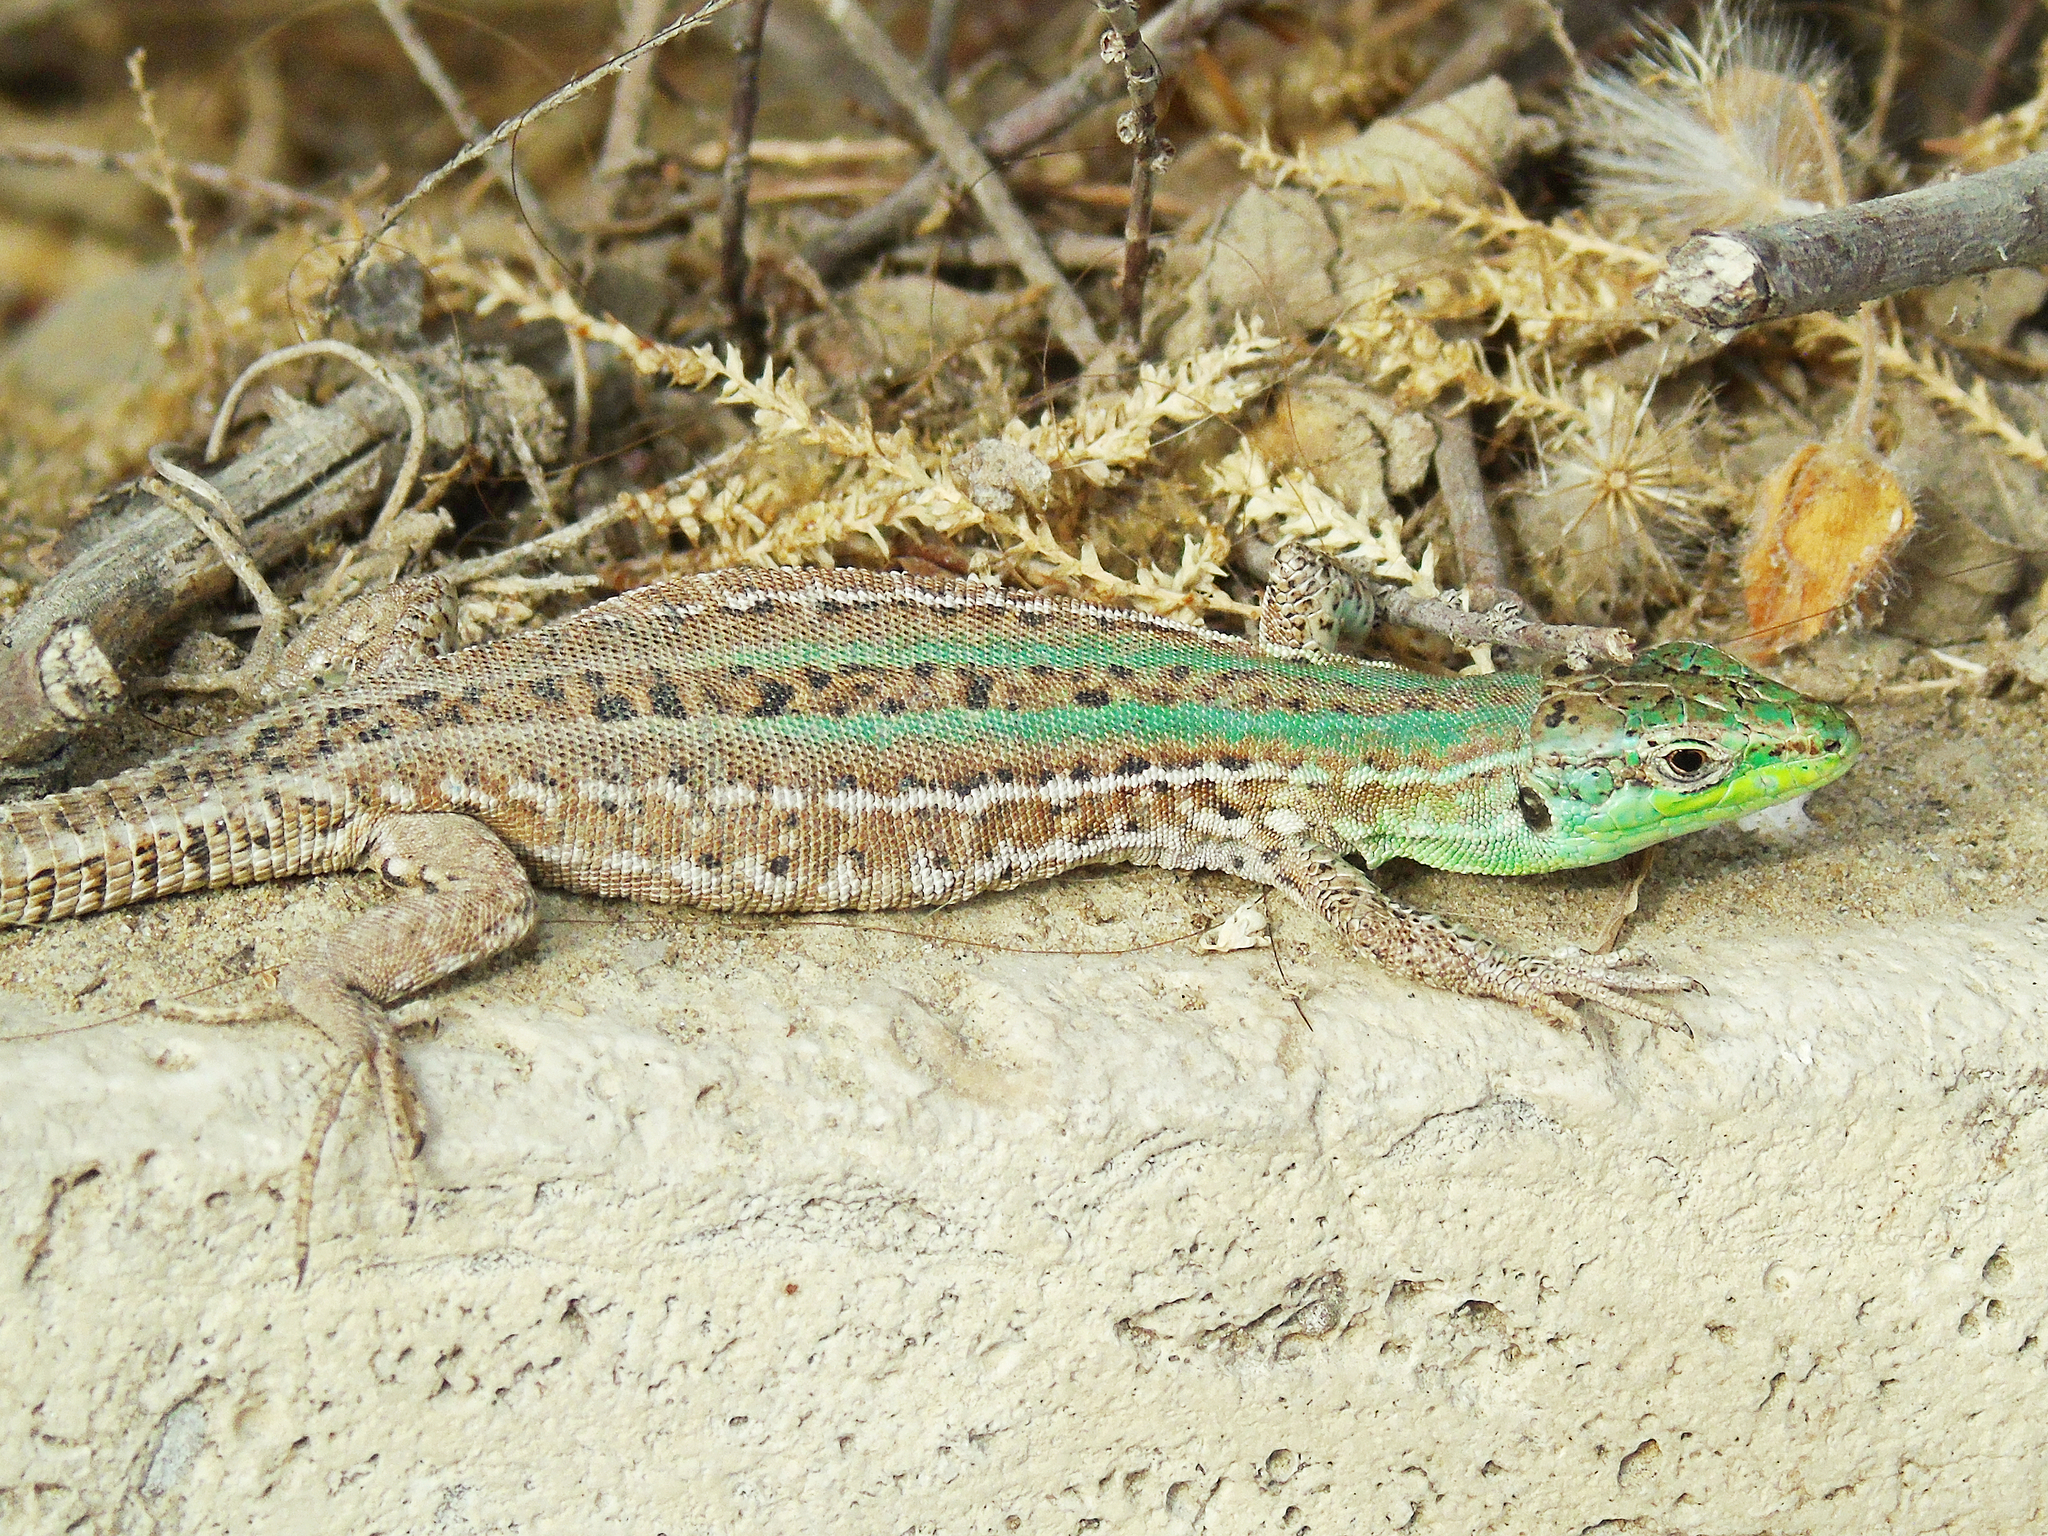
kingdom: Animalia
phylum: Chordata
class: Squamata
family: Lacertidae
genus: Podarcis
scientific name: Podarcis siculus
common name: Italian wall lizard
